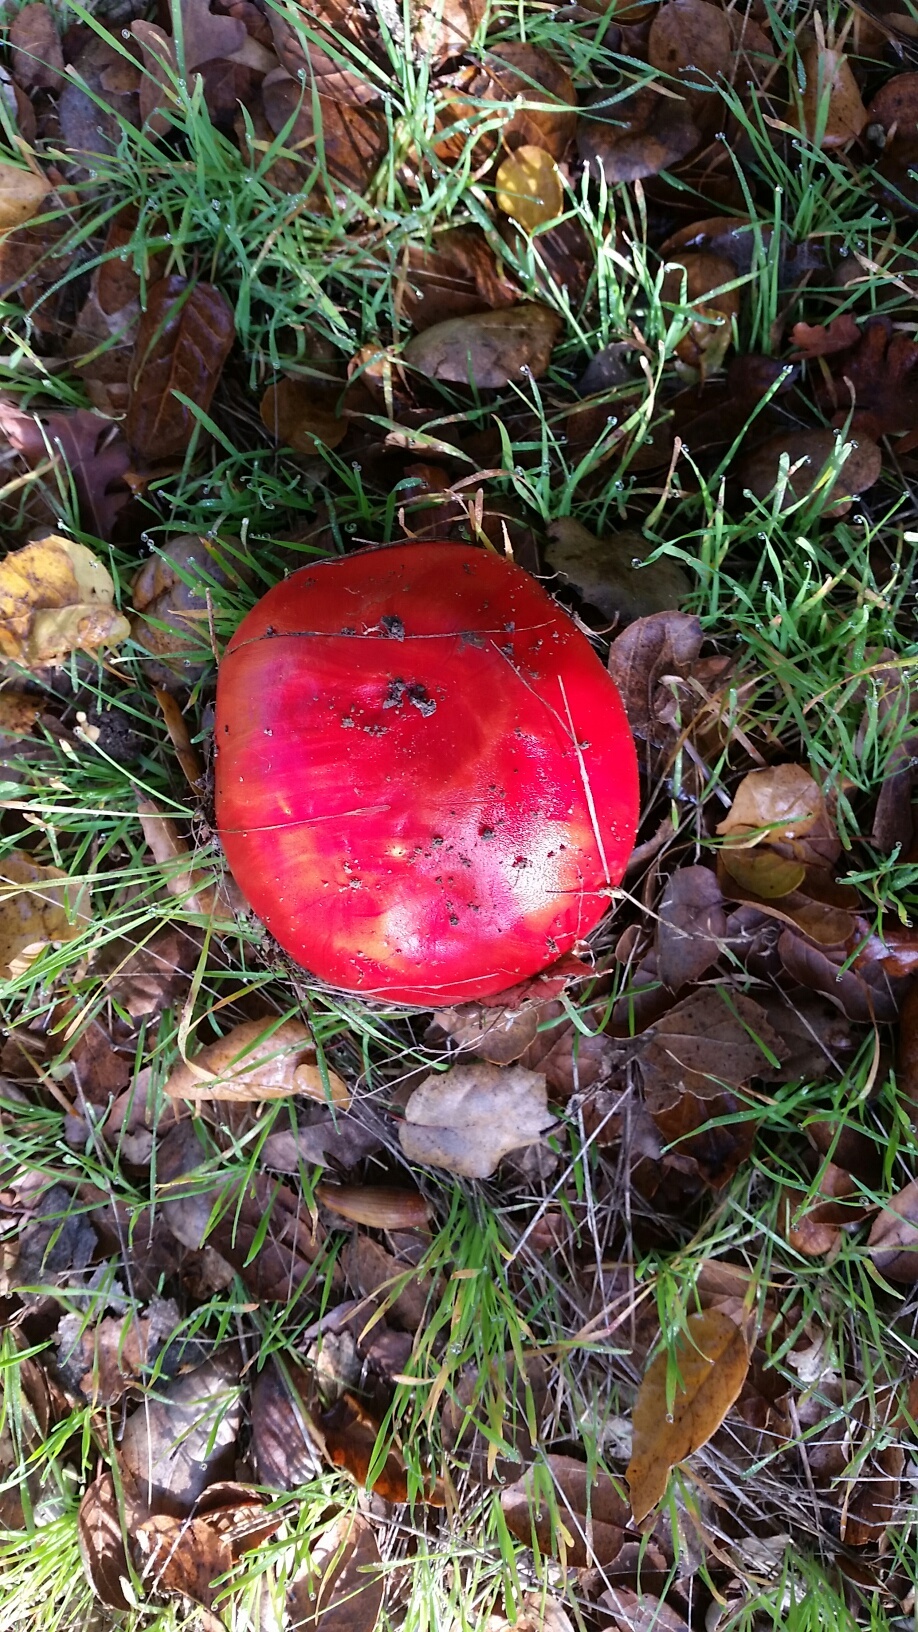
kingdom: Fungi
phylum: Basidiomycota
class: Agaricomycetes
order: Agaricales
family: Amanitaceae
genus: Amanita
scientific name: Amanita muscaria
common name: Fly agaric
